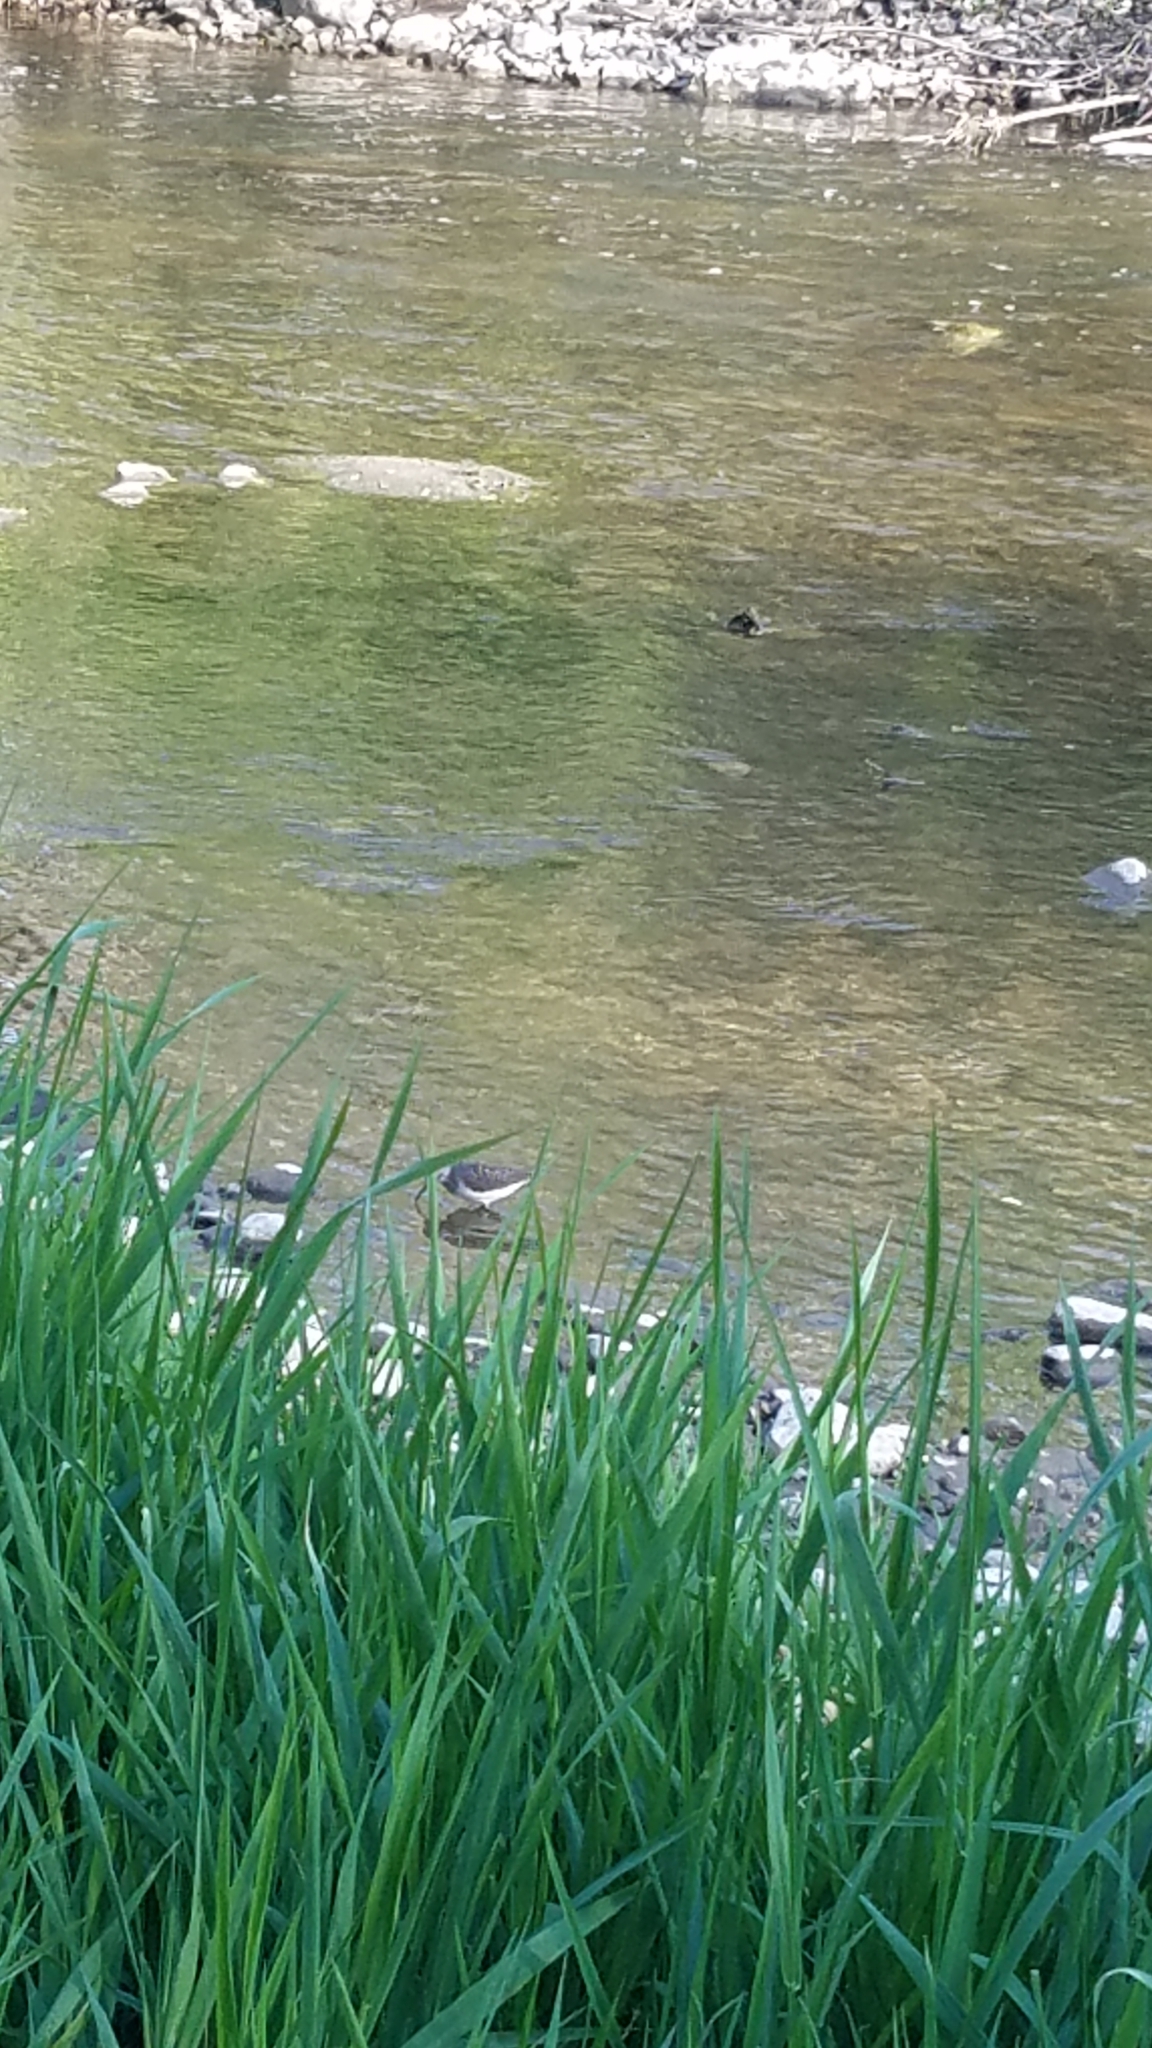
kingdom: Animalia
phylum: Chordata
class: Aves
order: Charadriiformes
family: Scolopacidae
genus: Tringa
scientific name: Tringa solitaria
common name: Solitary sandpiper
